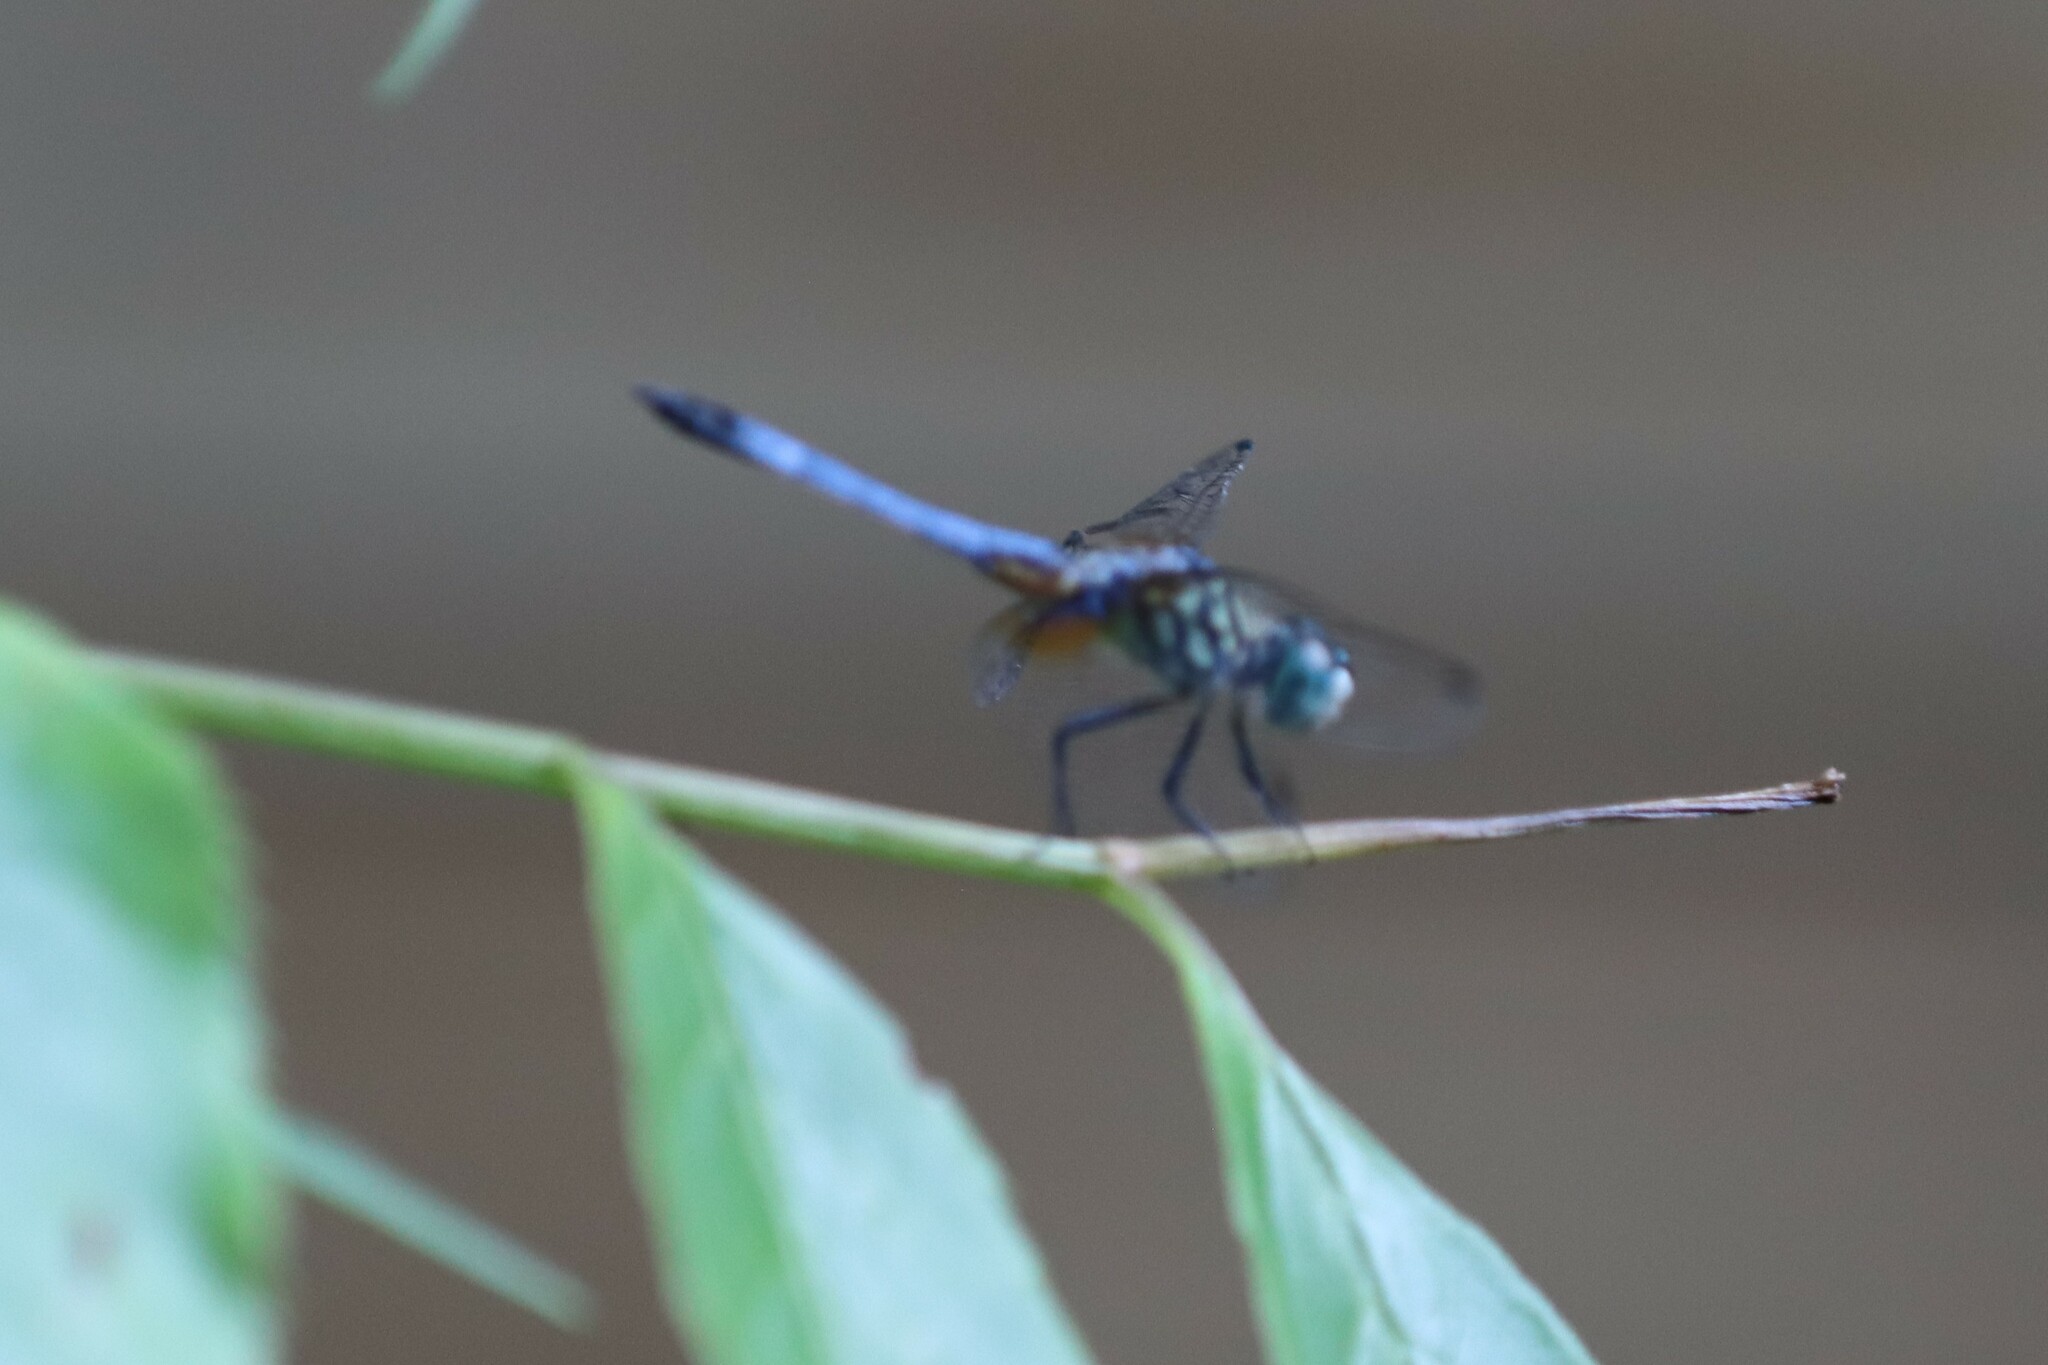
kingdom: Animalia
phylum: Arthropoda
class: Insecta
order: Odonata
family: Libellulidae
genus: Pachydiplax
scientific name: Pachydiplax longipennis
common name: Blue dasher
